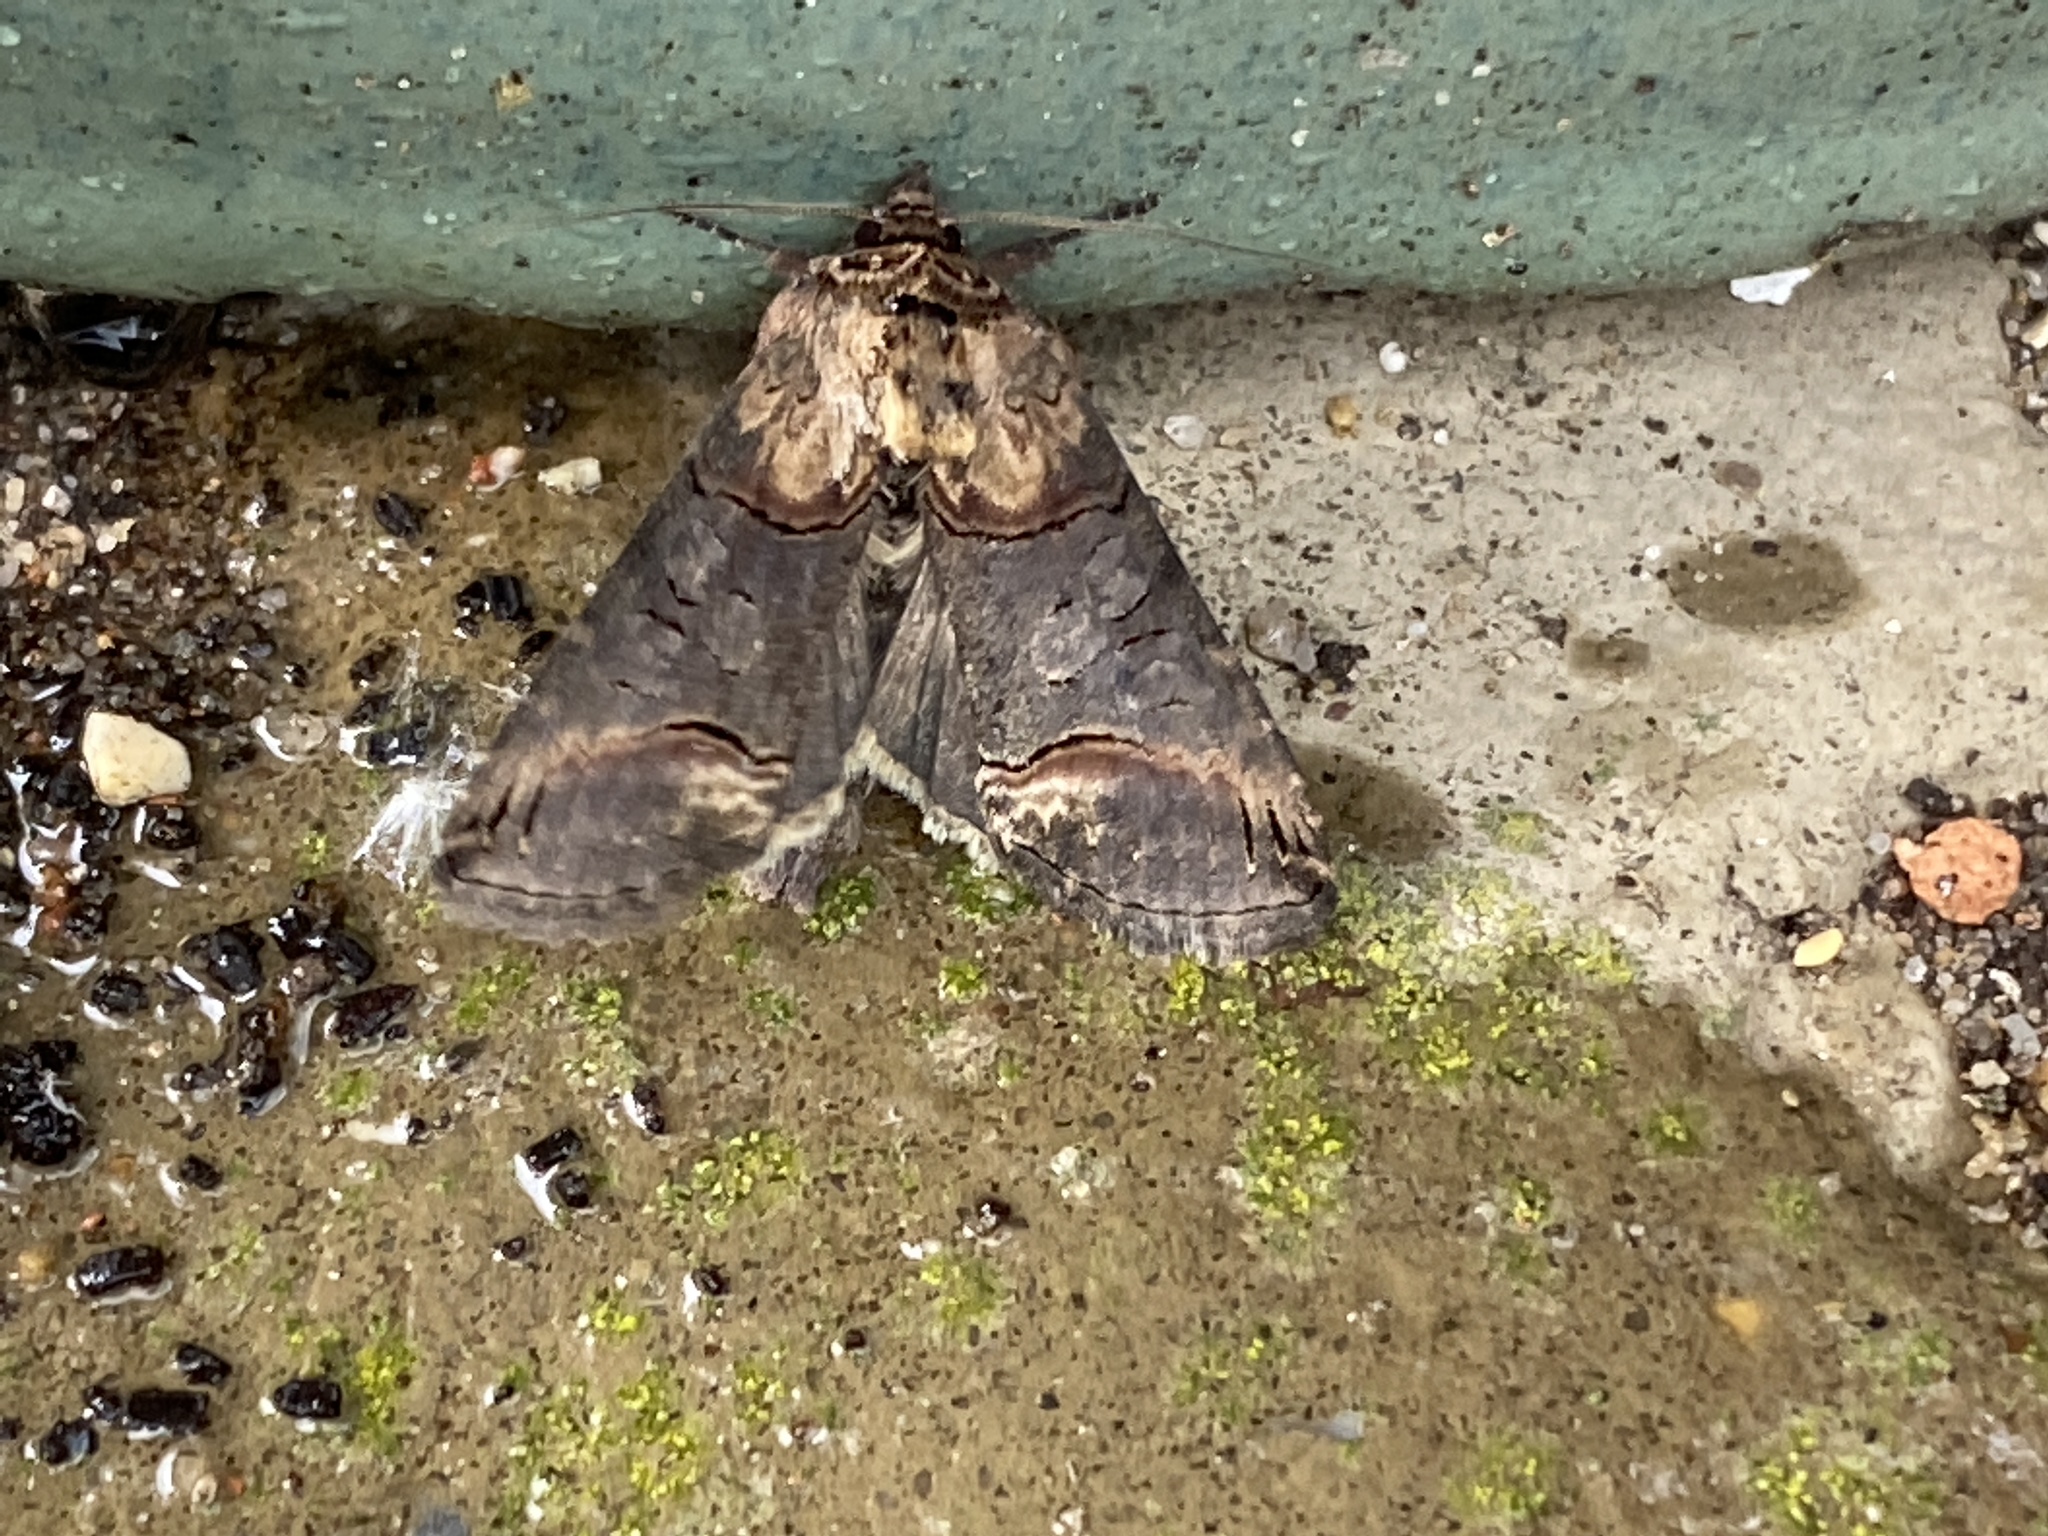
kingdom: Animalia
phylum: Arthropoda
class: Insecta
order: Lepidoptera
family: Noctuidae
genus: Abrostola
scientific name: Abrostola triplasia
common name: Dark spectacle
